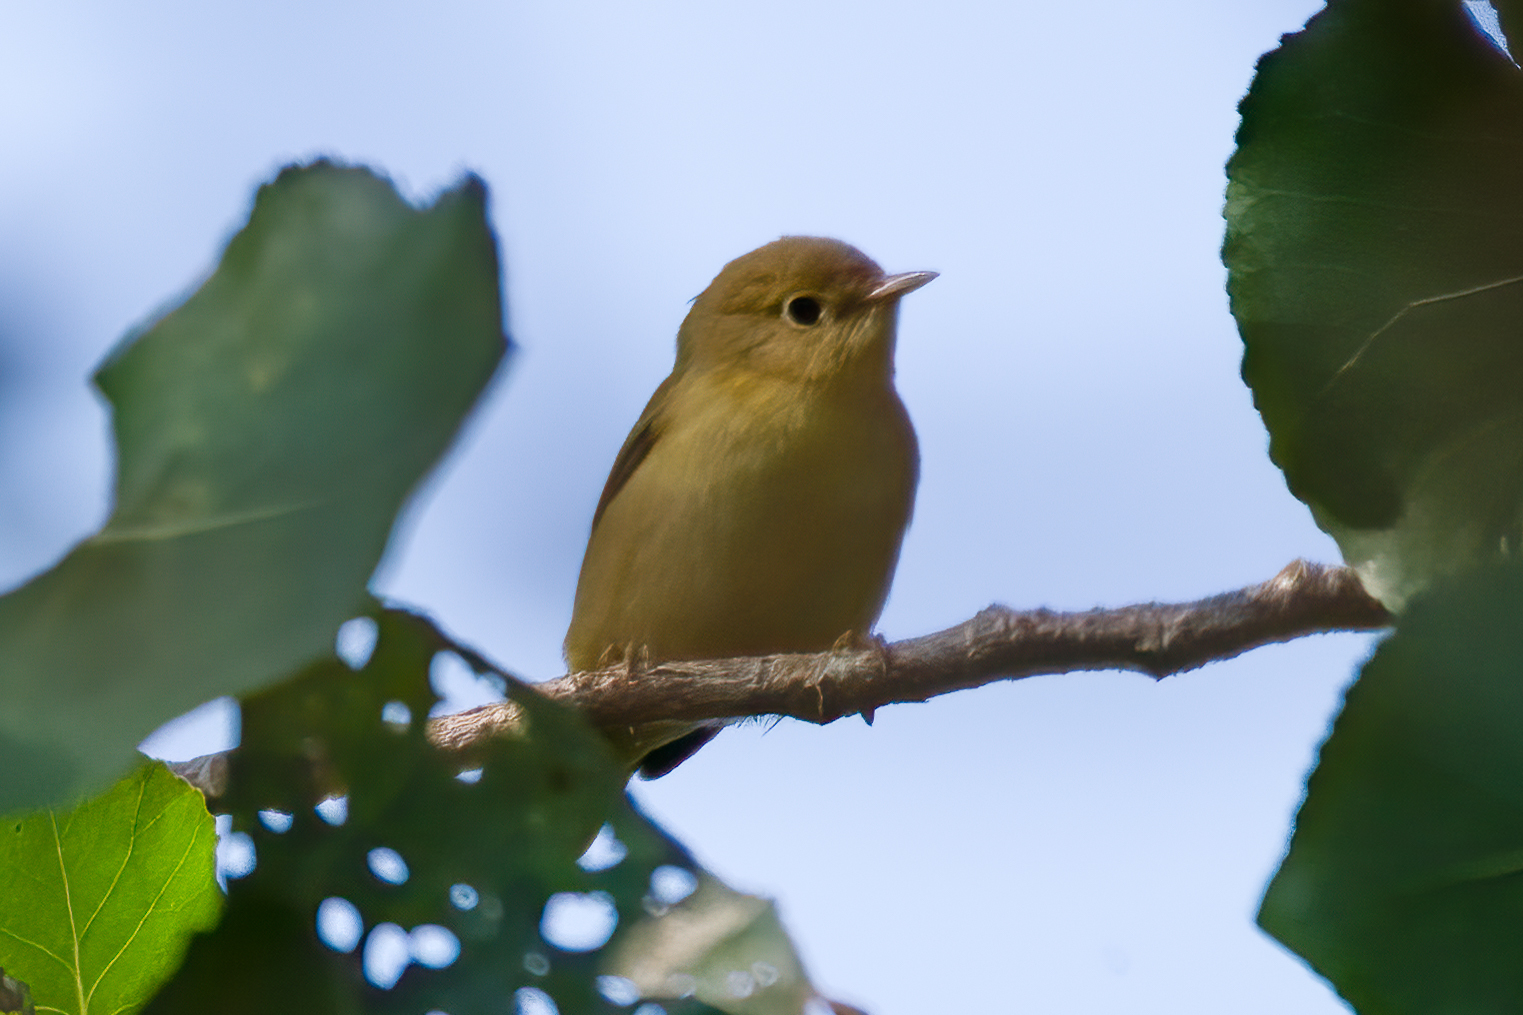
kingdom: Animalia
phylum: Chordata
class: Aves
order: Passeriformes
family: Parulidae
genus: Setophaga
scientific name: Setophaga petechia
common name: Yellow warbler
